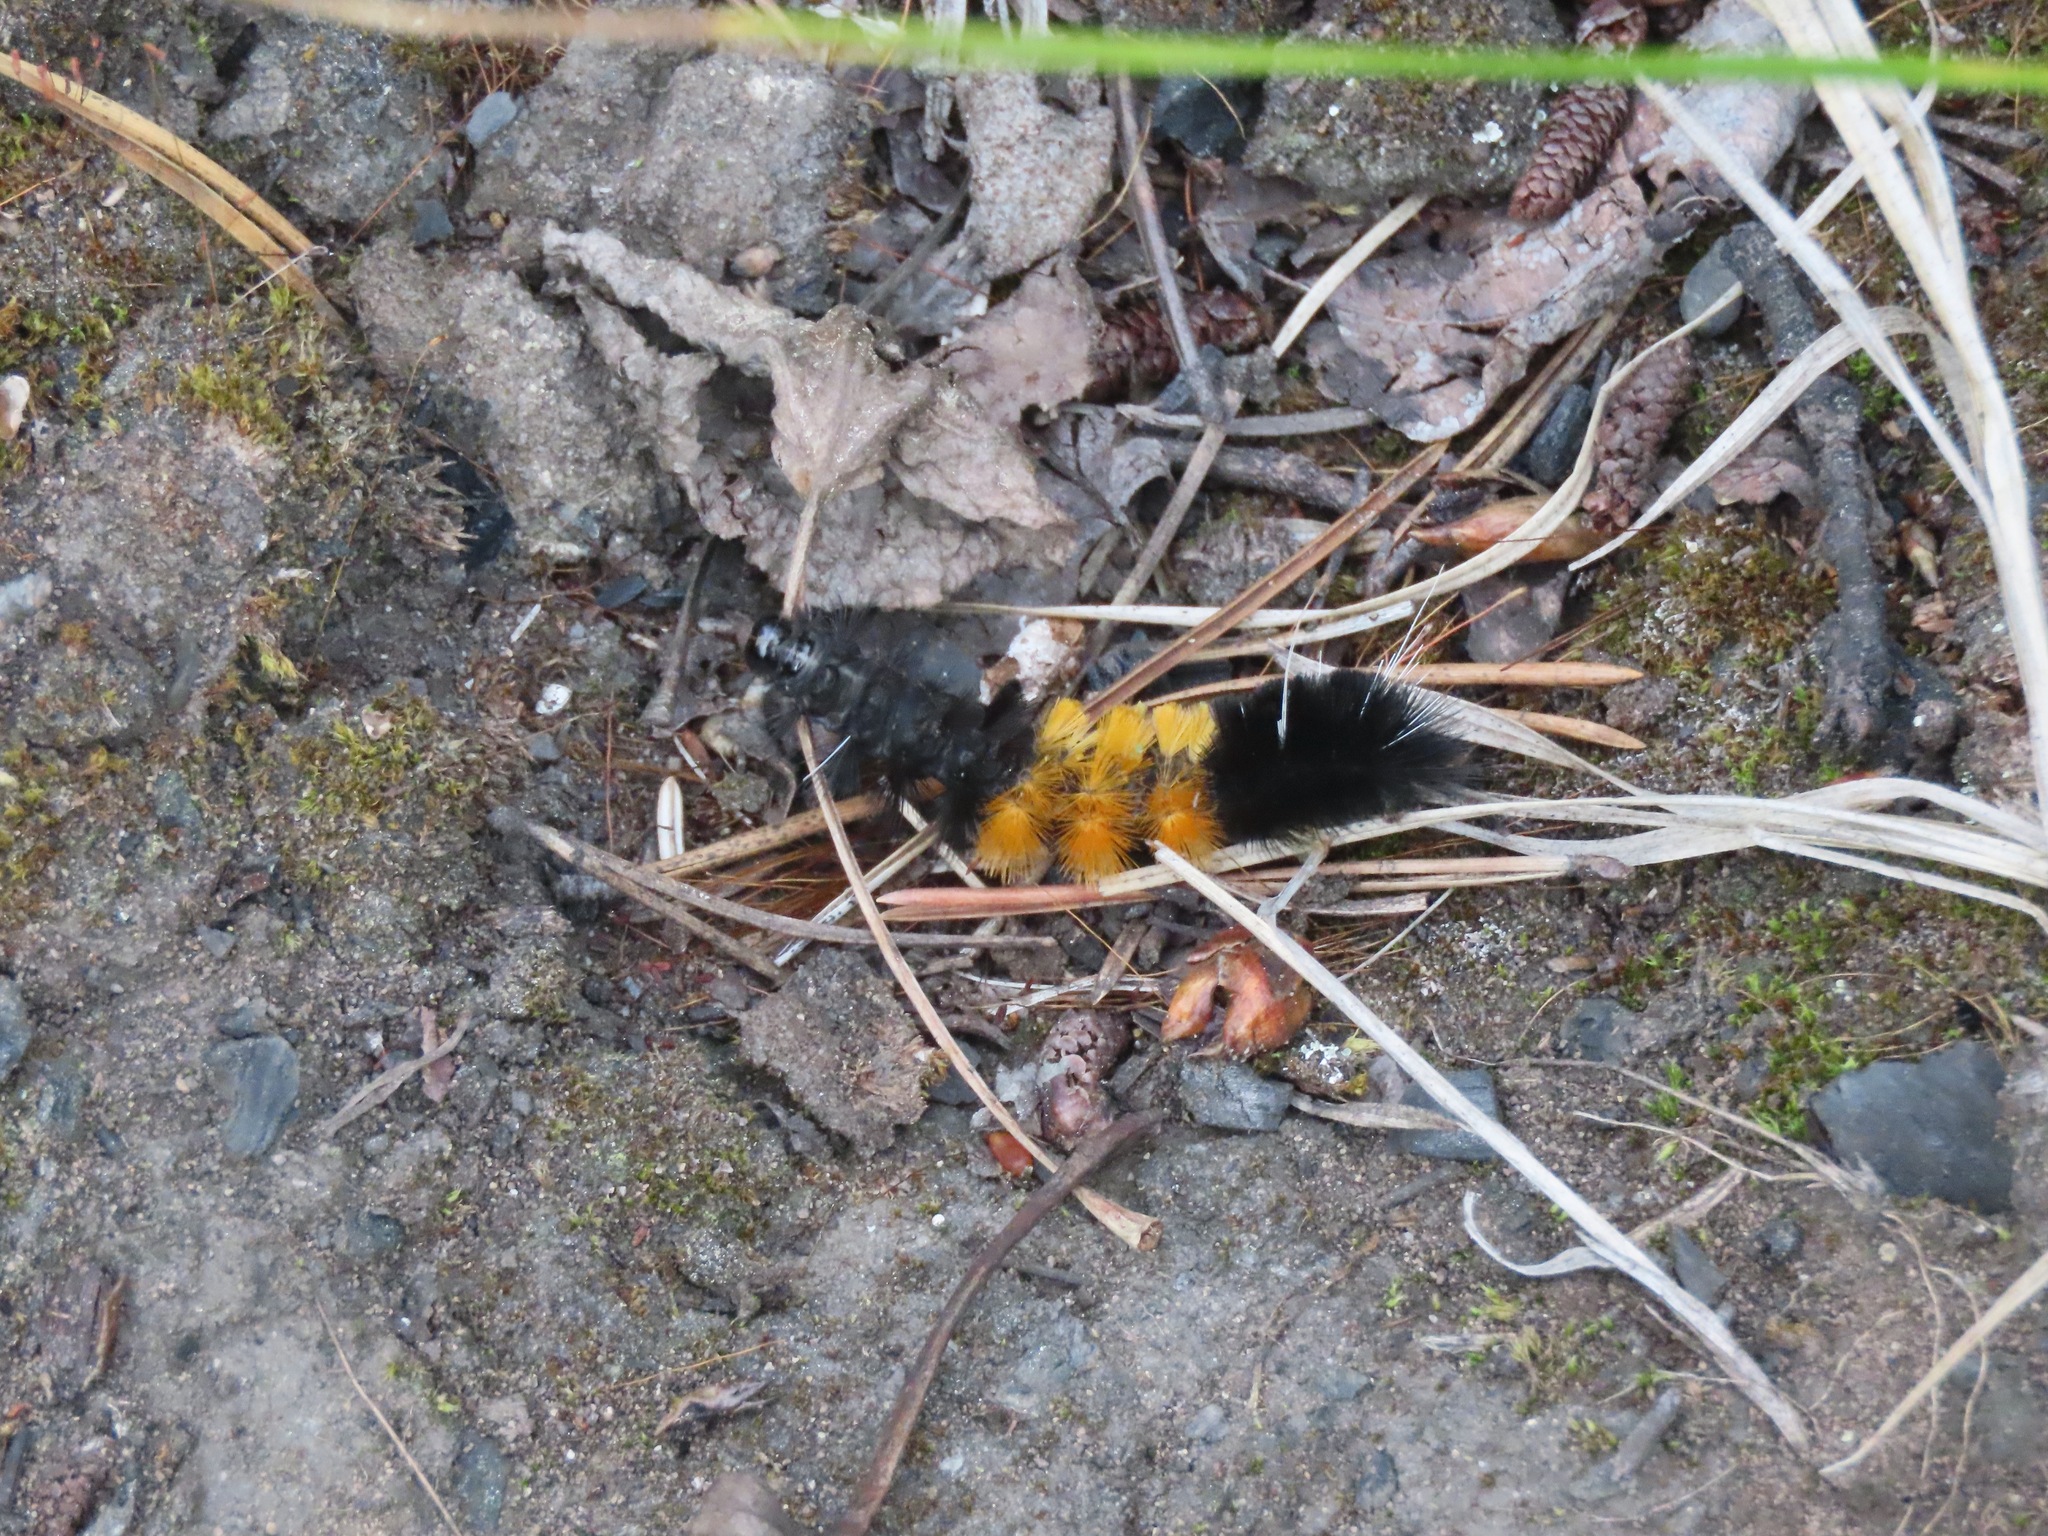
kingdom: Animalia
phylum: Arthropoda
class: Insecta
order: Lepidoptera
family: Erebidae
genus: Lophocampa
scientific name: Lophocampa maculata
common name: Spotted tussock moth
